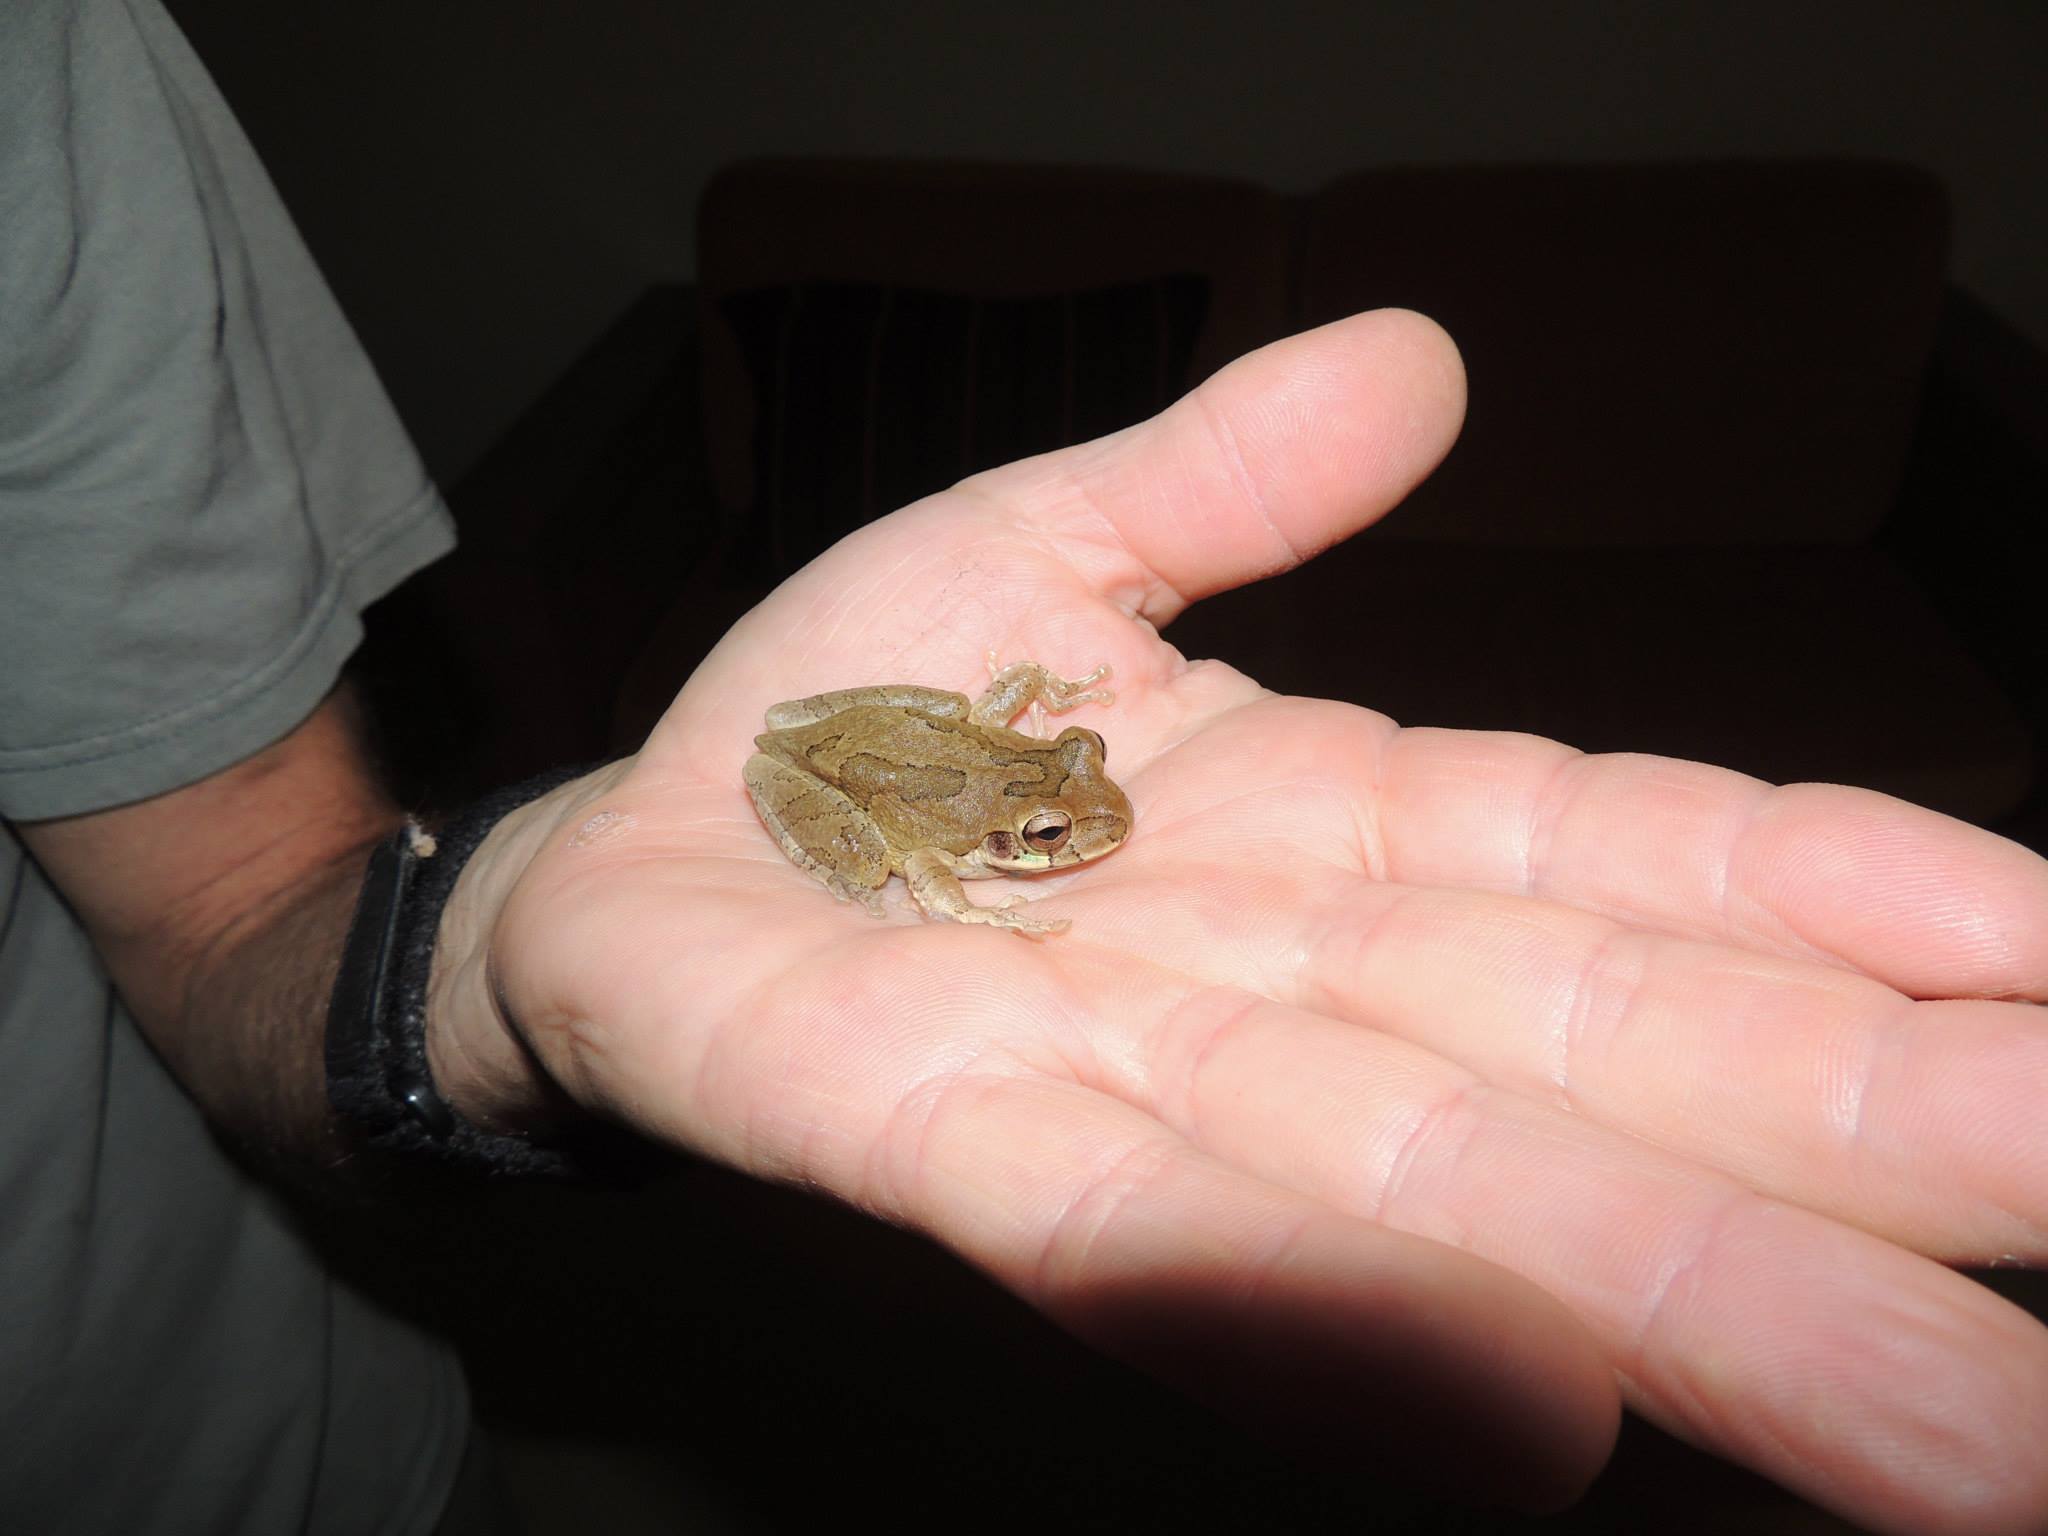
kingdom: Animalia
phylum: Chordata
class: Amphibia
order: Anura
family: Hylidae
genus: Smilisca
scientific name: Smilisca baudinii
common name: Mexican smilisca
